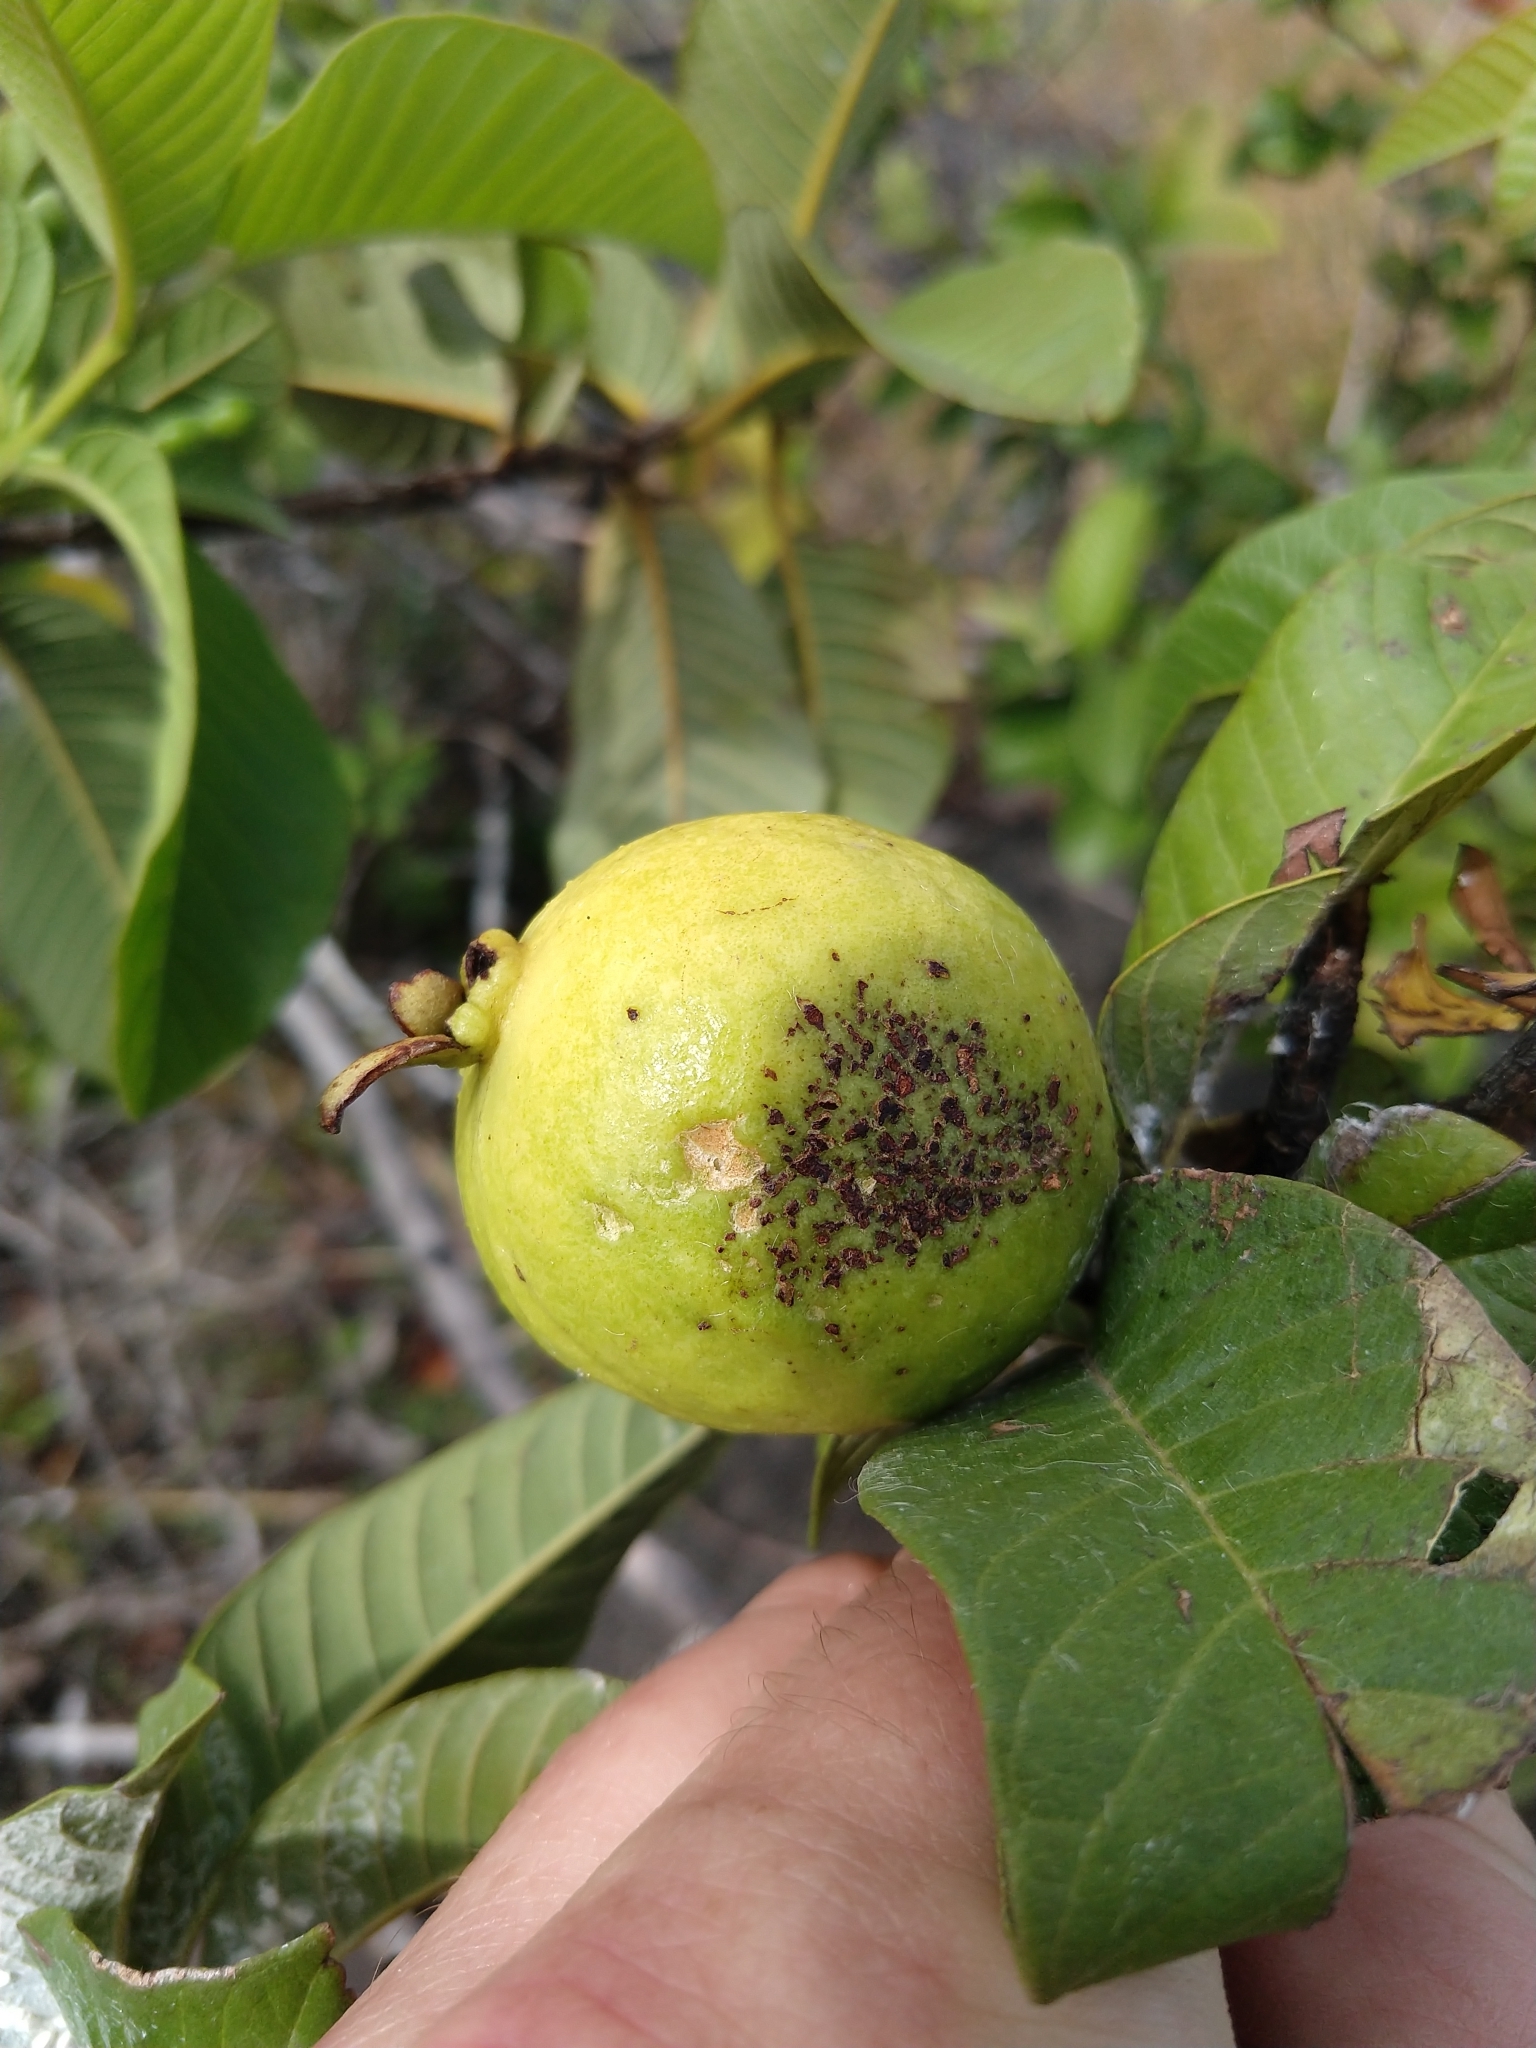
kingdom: Plantae
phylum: Tracheophyta
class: Magnoliopsida
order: Myrtales
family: Myrtaceae
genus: Psidium
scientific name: Psidium guajava
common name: Guava
